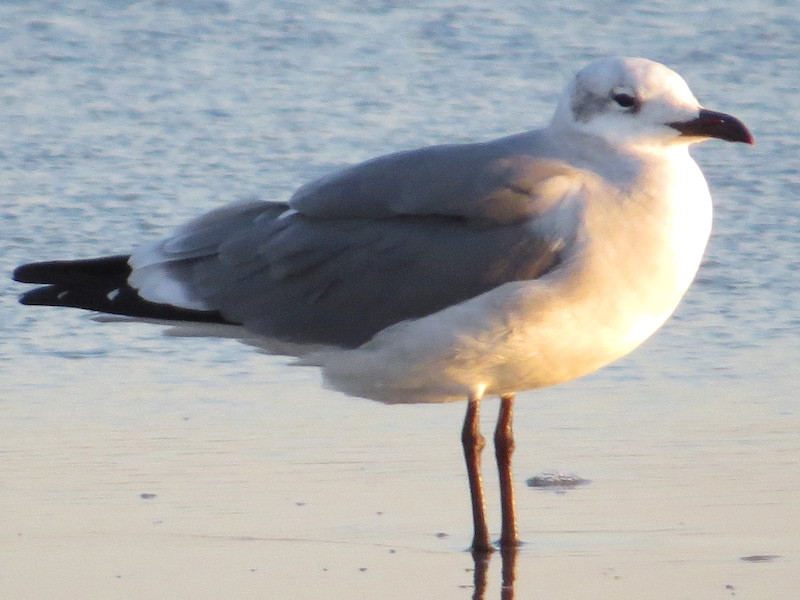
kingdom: Animalia
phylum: Chordata
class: Aves
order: Charadriiformes
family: Laridae
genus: Leucophaeus
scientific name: Leucophaeus atricilla
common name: Laughing gull
